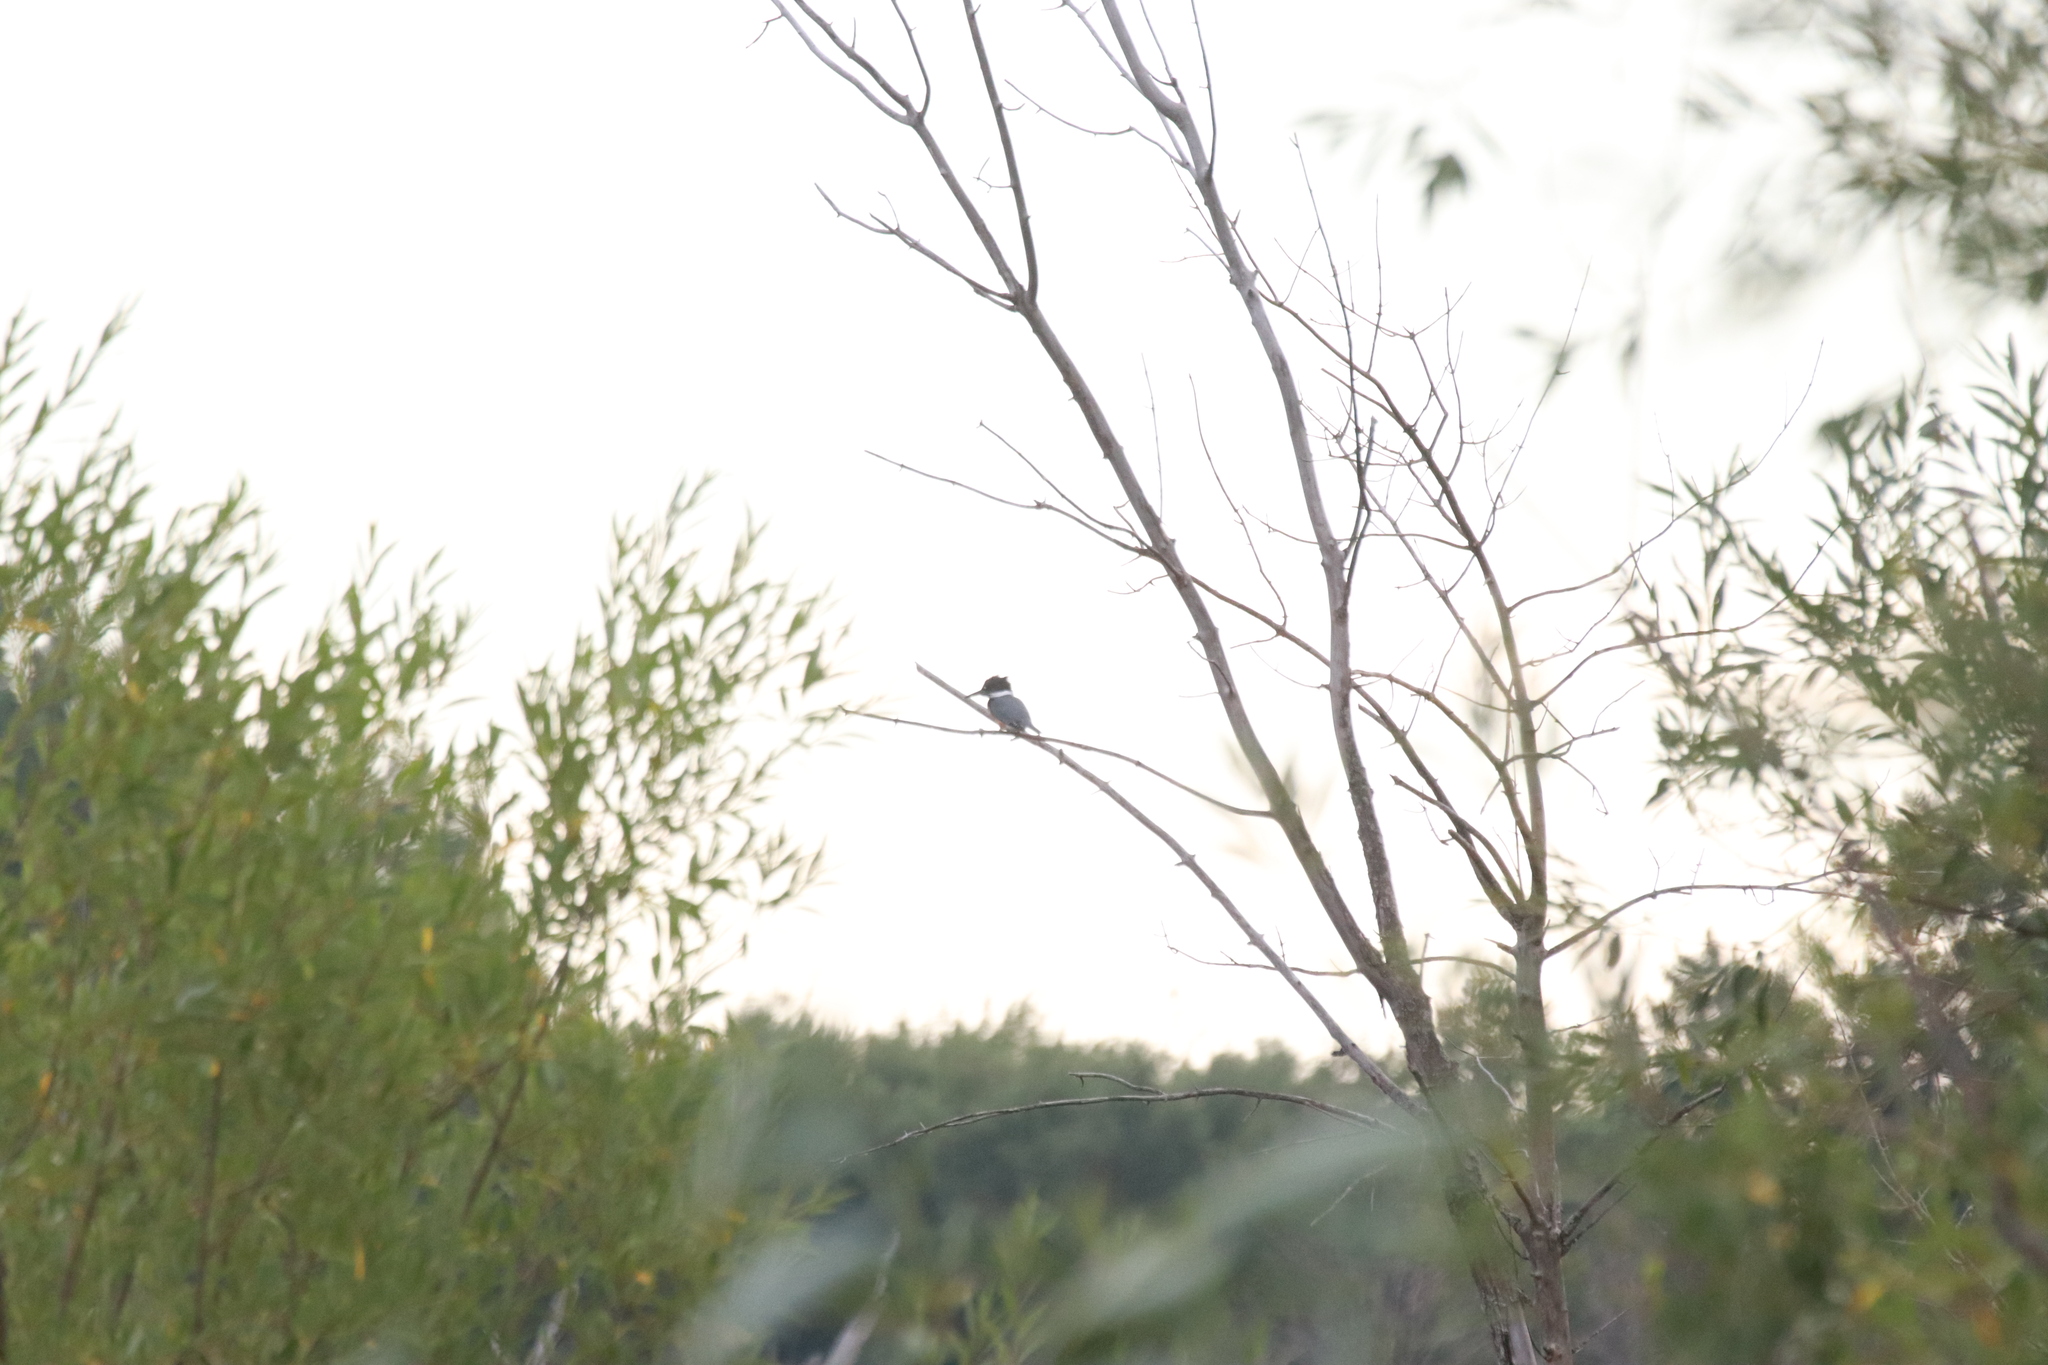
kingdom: Animalia
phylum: Chordata
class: Aves
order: Coraciiformes
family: Alcedinidae
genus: Megaceryle
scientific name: Megaceryle alcyon
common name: Belted kingfisher
